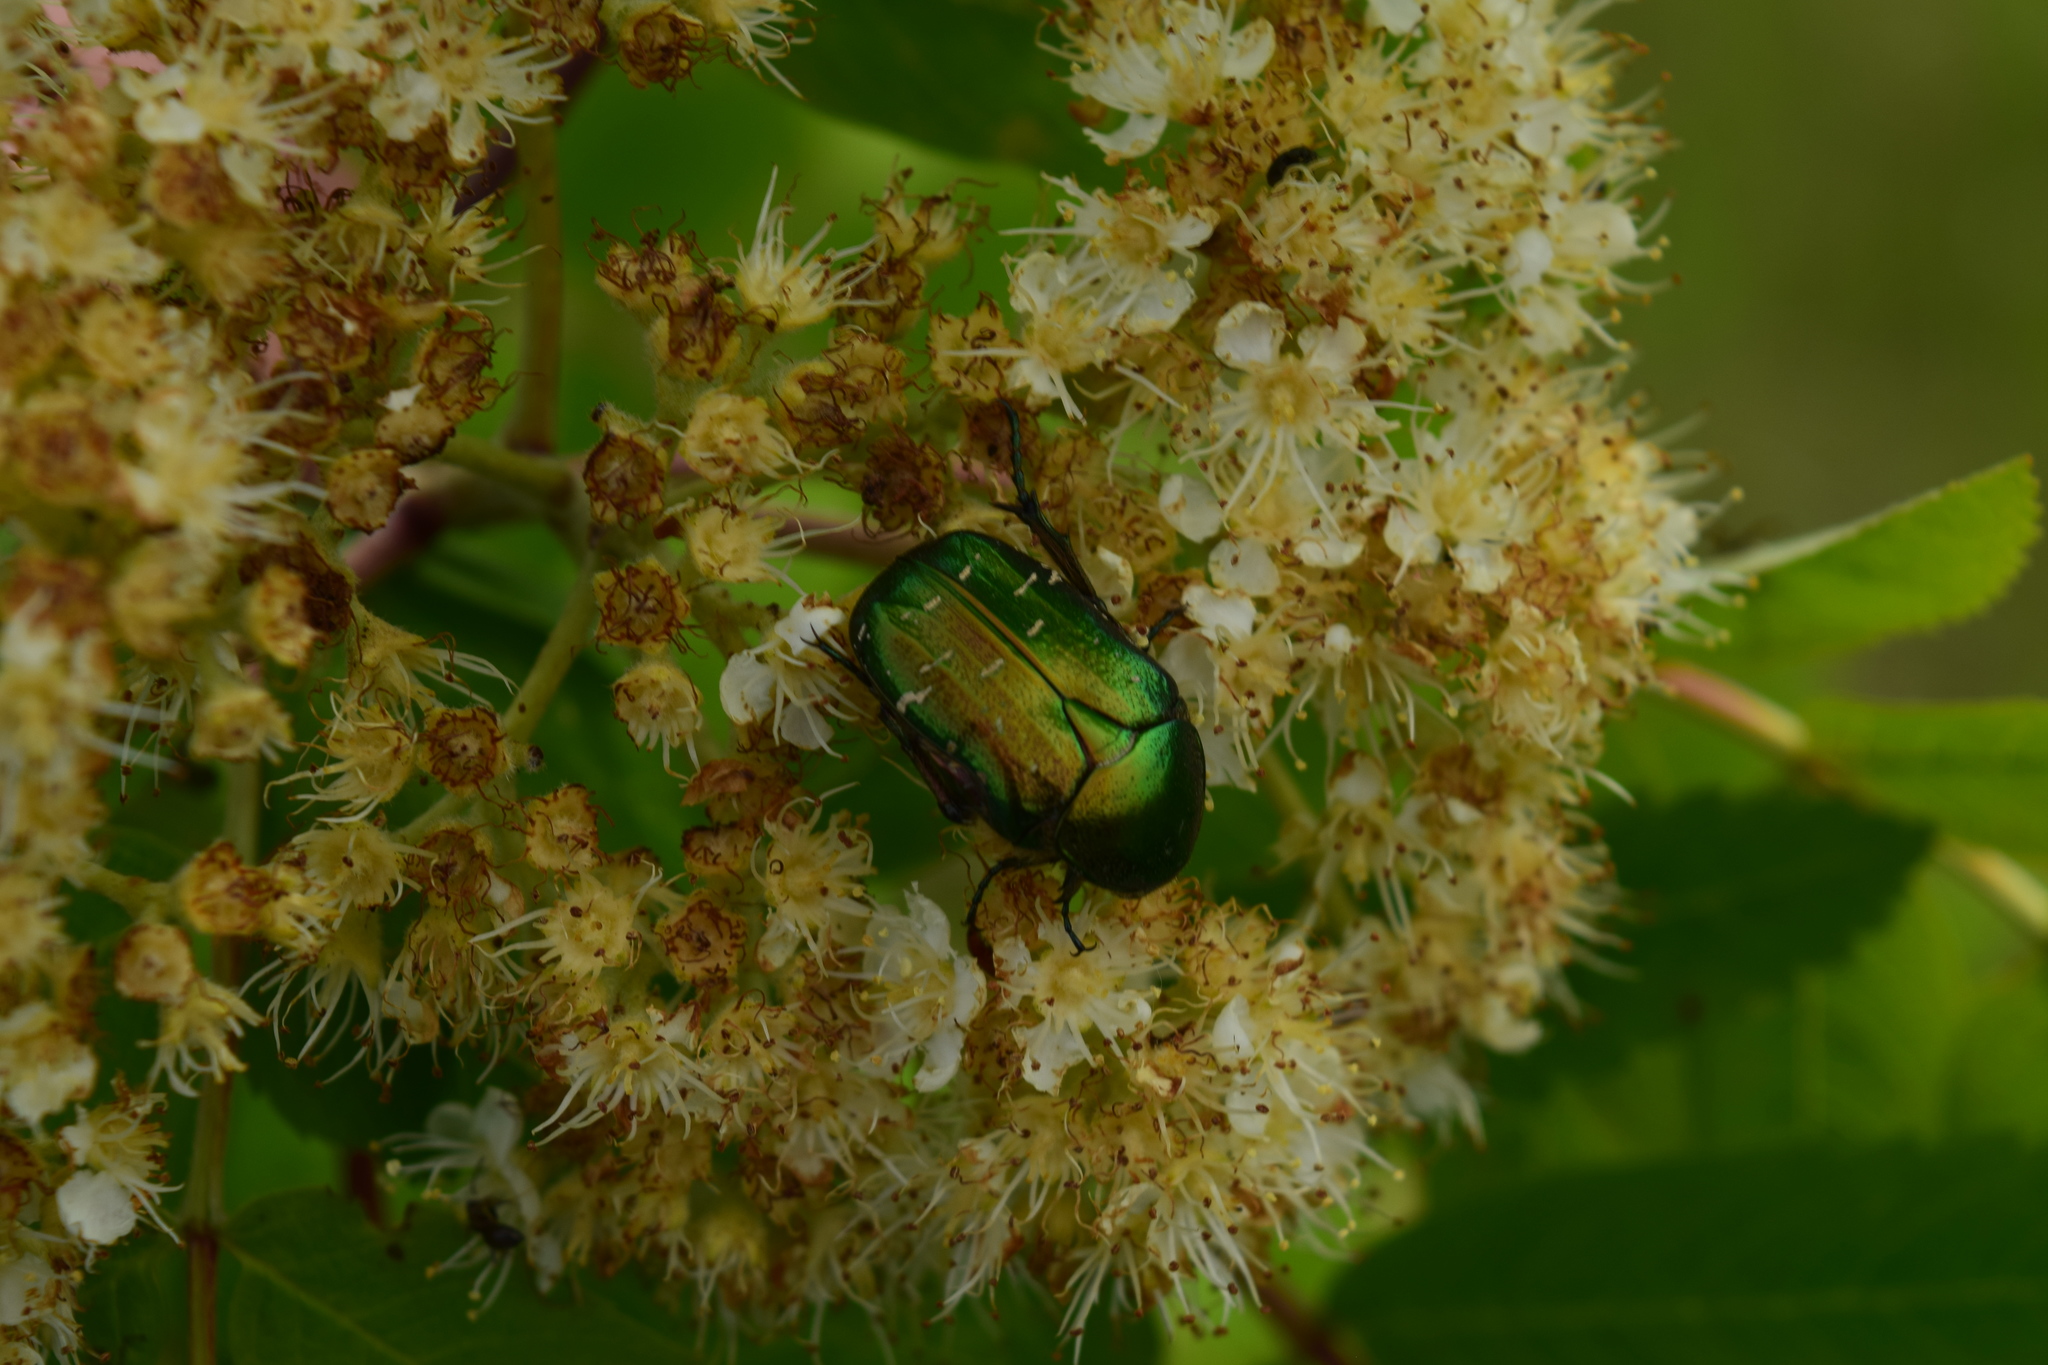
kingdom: Animalia
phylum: Arthropoda
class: Insecta
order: Coleoptera
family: Scarabaeidae
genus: Cetonia
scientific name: Cetonia aurata
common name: Rose chafer
